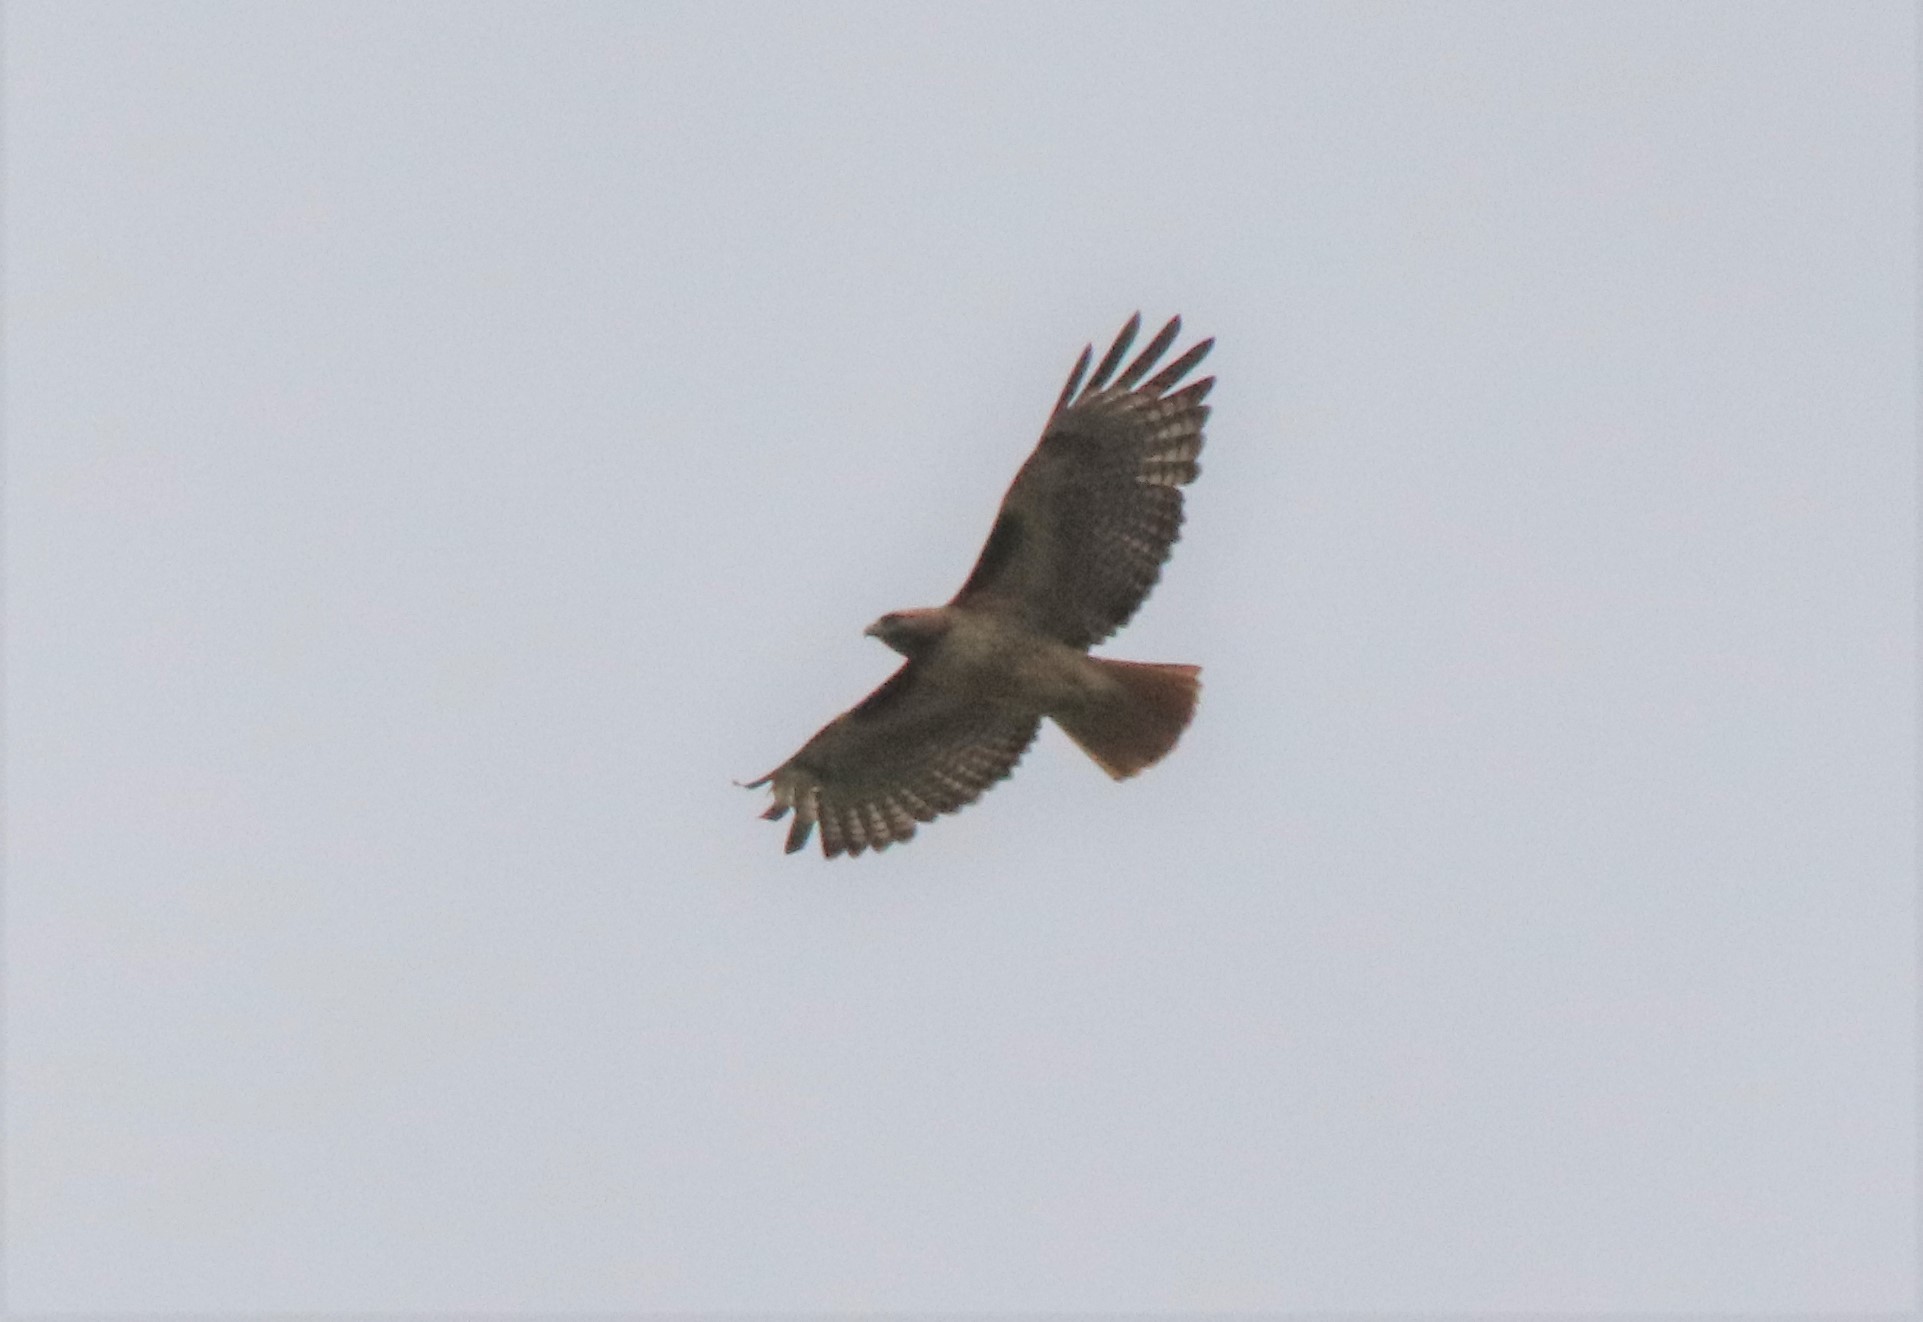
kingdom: Animalia
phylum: Chordata
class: Aves
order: Accipitriformes
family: Accipitridae
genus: Buteo
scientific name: Buteo jamaicensis
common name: Red-tailed hawk
